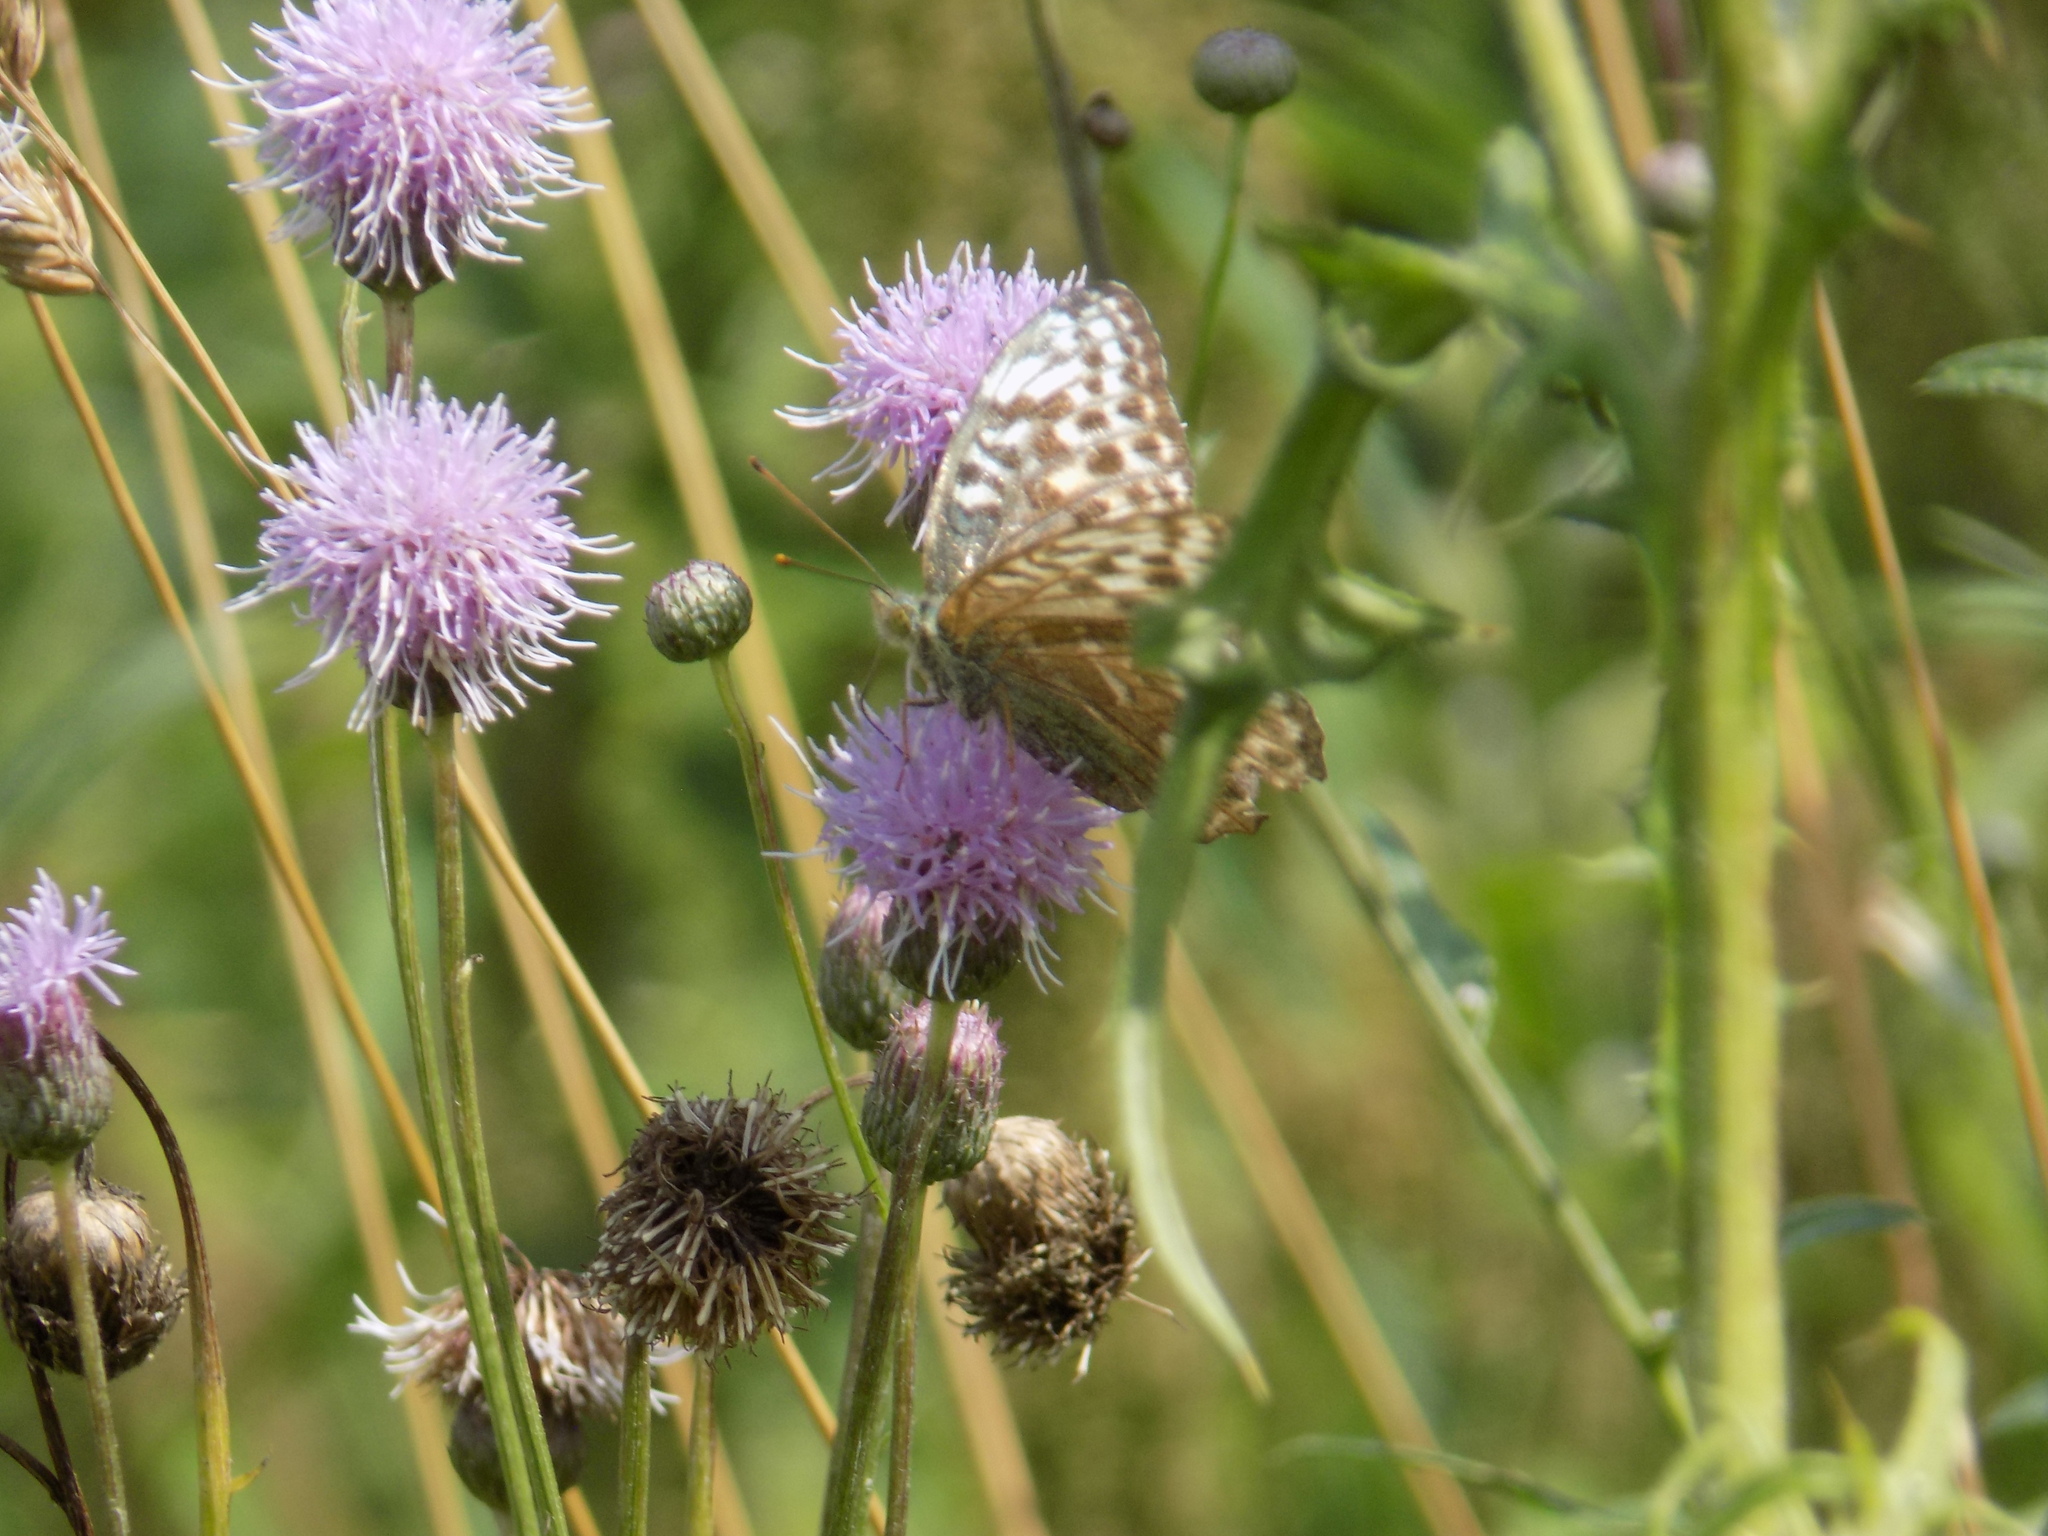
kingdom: Animalia
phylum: Arthropoda
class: Insecta
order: Lepidoptera
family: Nymphalidae
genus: Argynnis
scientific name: Argynnis paphia
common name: Silver-washed fritillary
